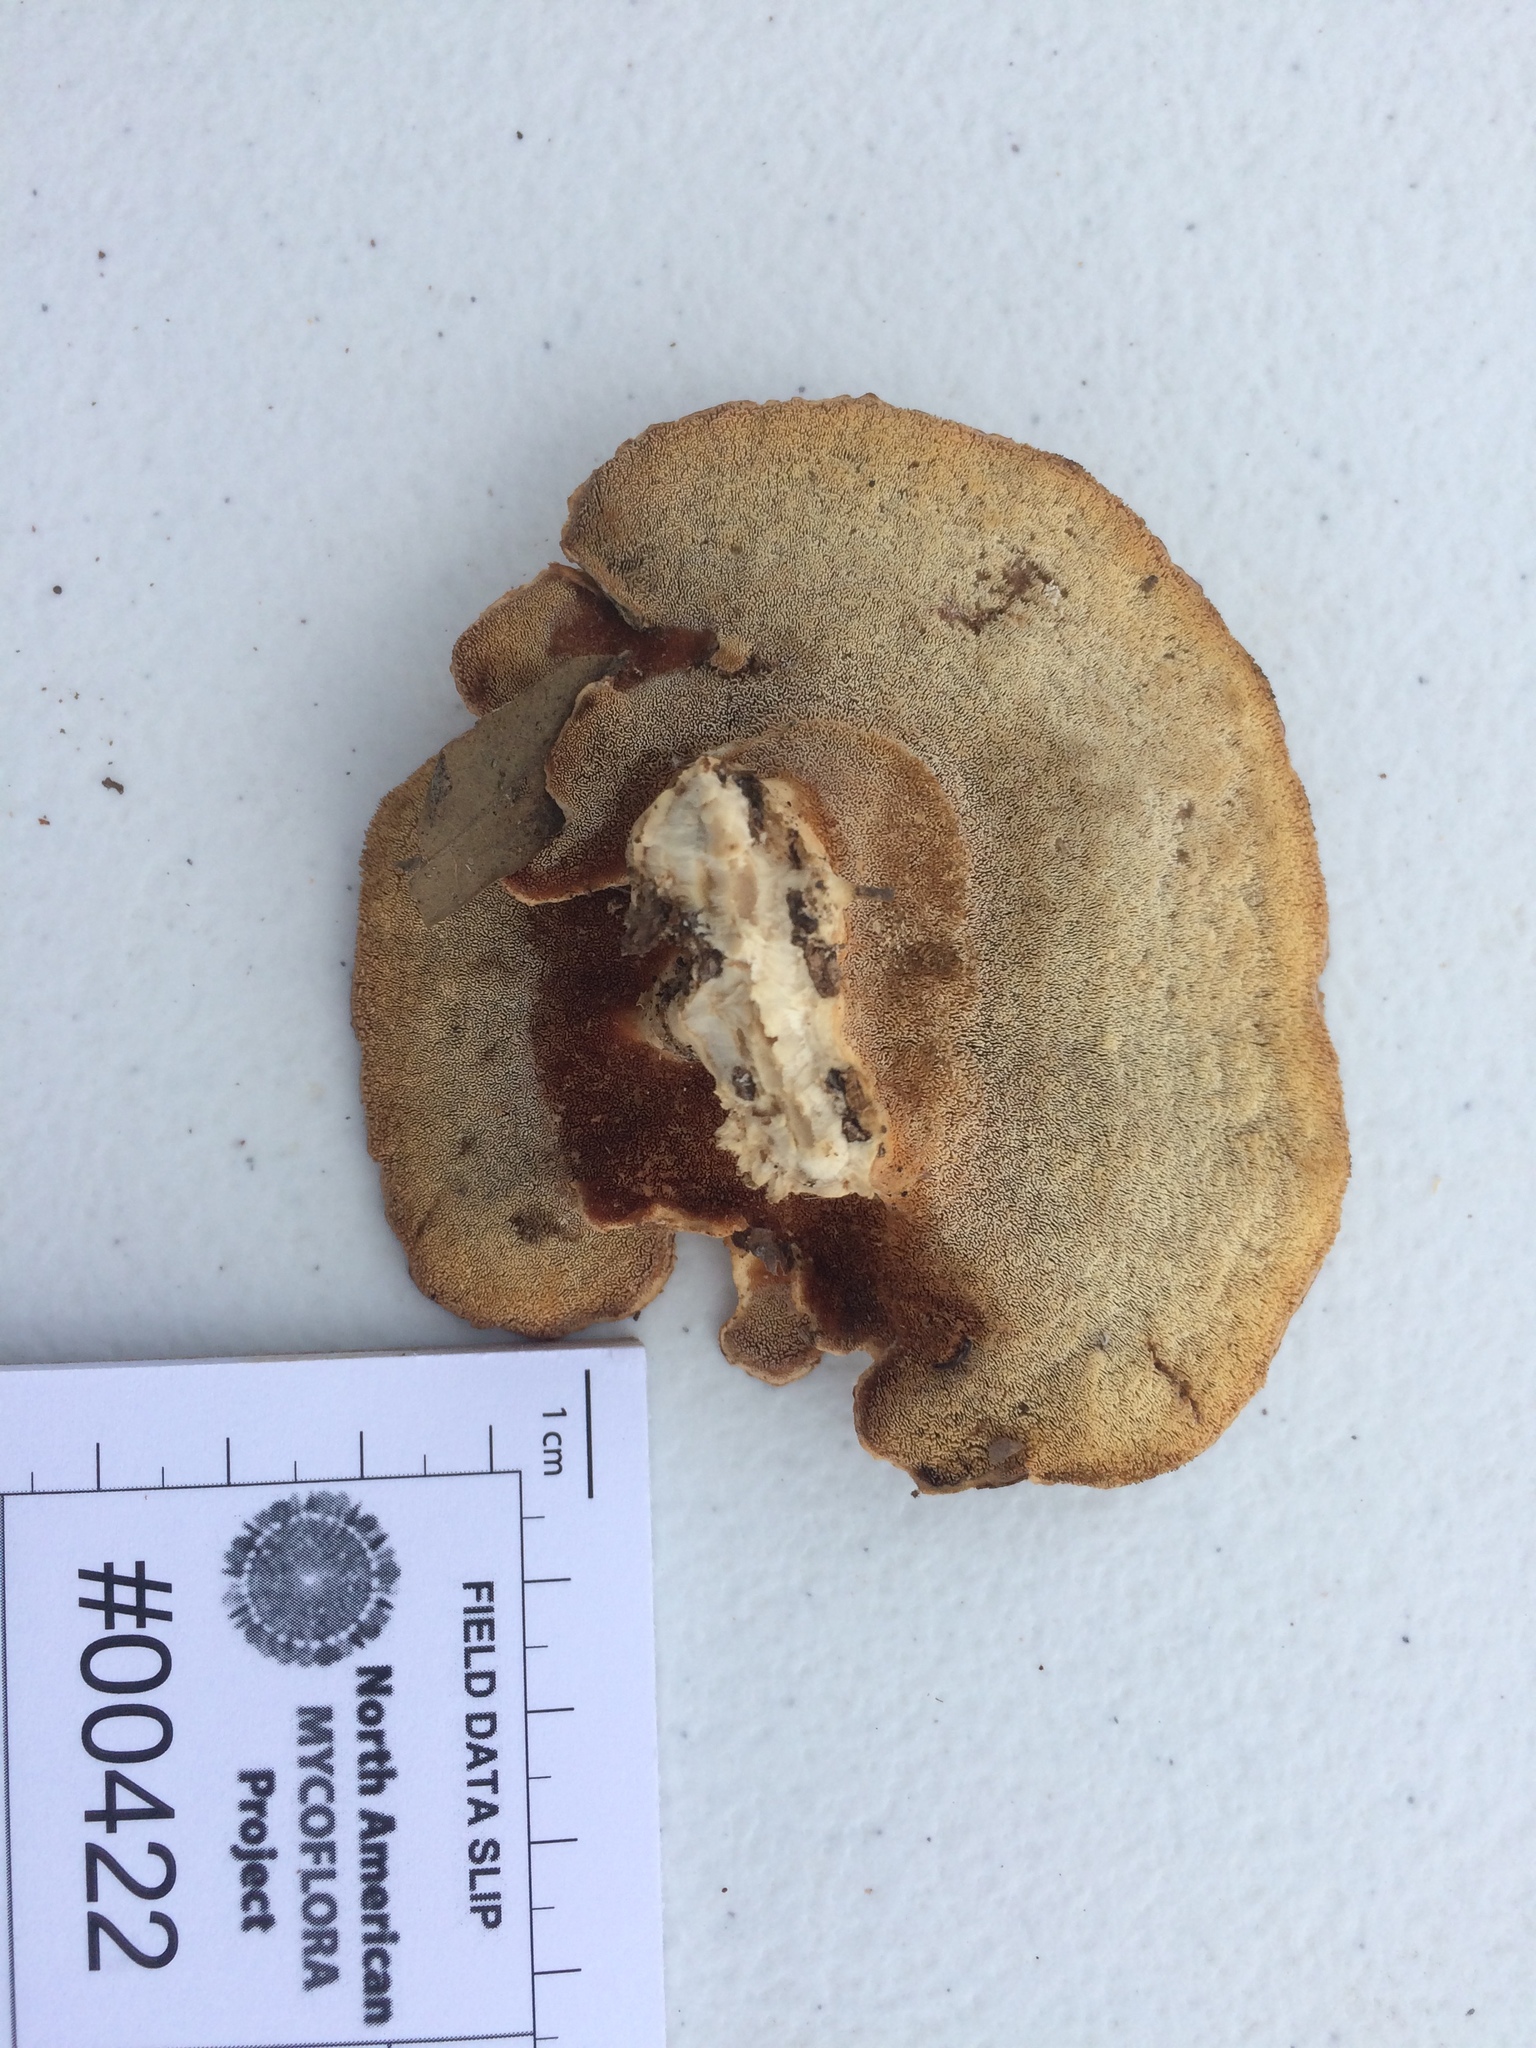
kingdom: Fungi
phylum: Basidiomycota
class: Agaricomycetes
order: Polyporales
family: Steccherinaceae
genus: Mycorrhaphium
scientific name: Mycorrhaphium adustum
